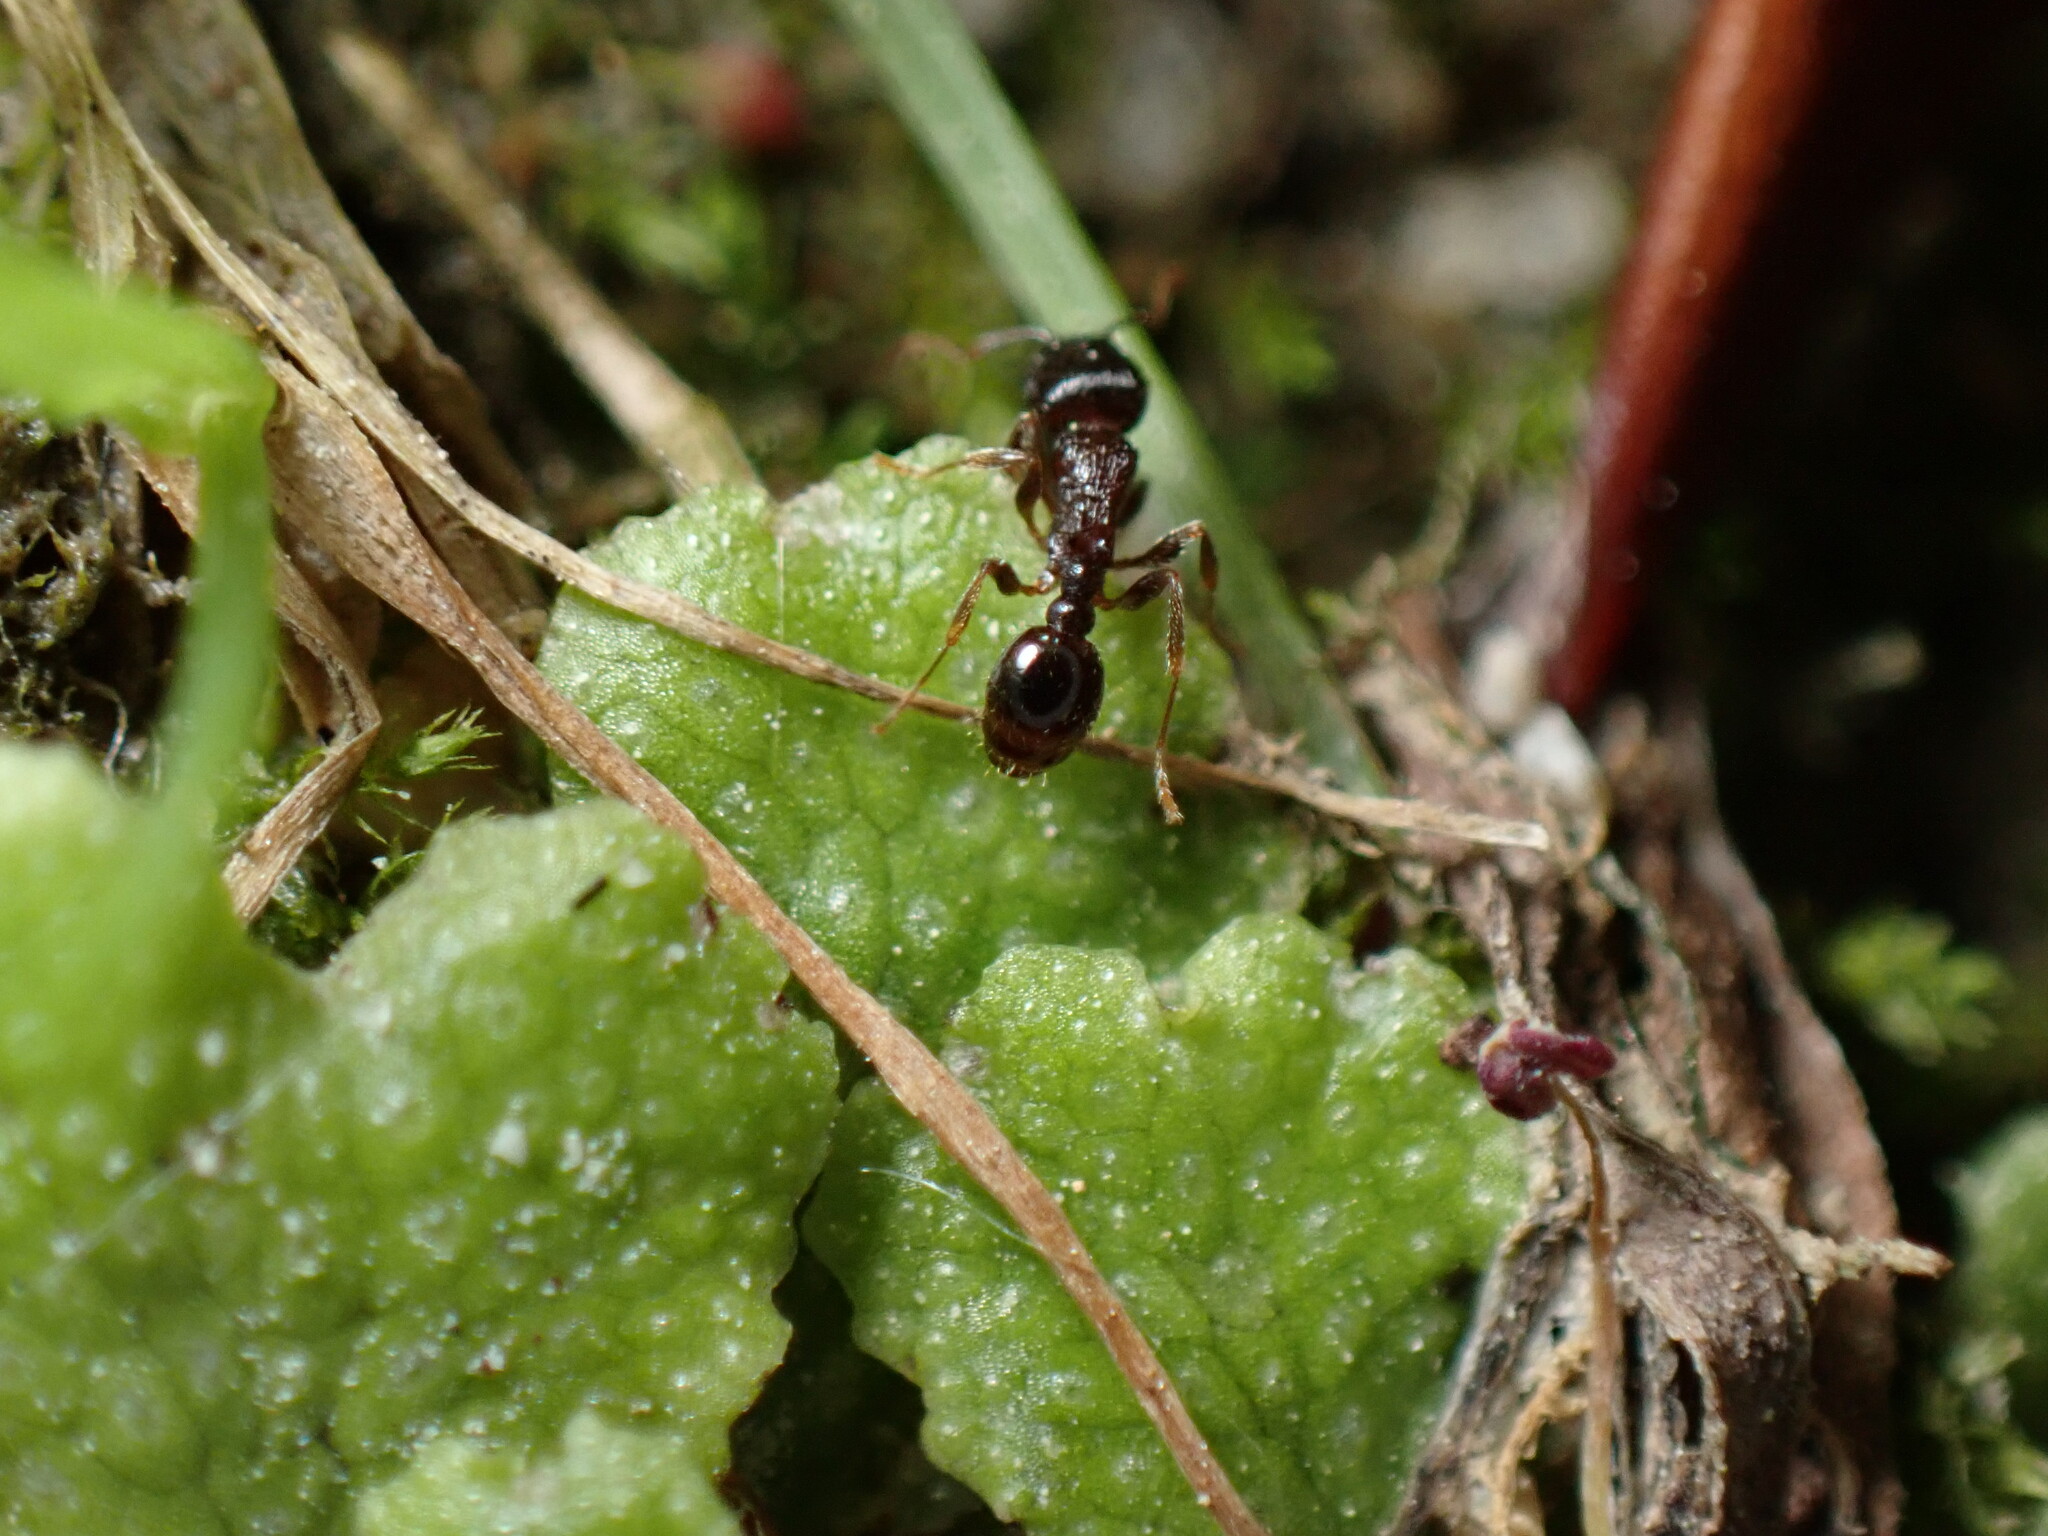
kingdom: Animalia
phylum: Arthropoda
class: Insecta
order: Hymenoptera
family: Formicidae
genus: Tetramorium
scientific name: Tetramorium tsushimae
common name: Ant
